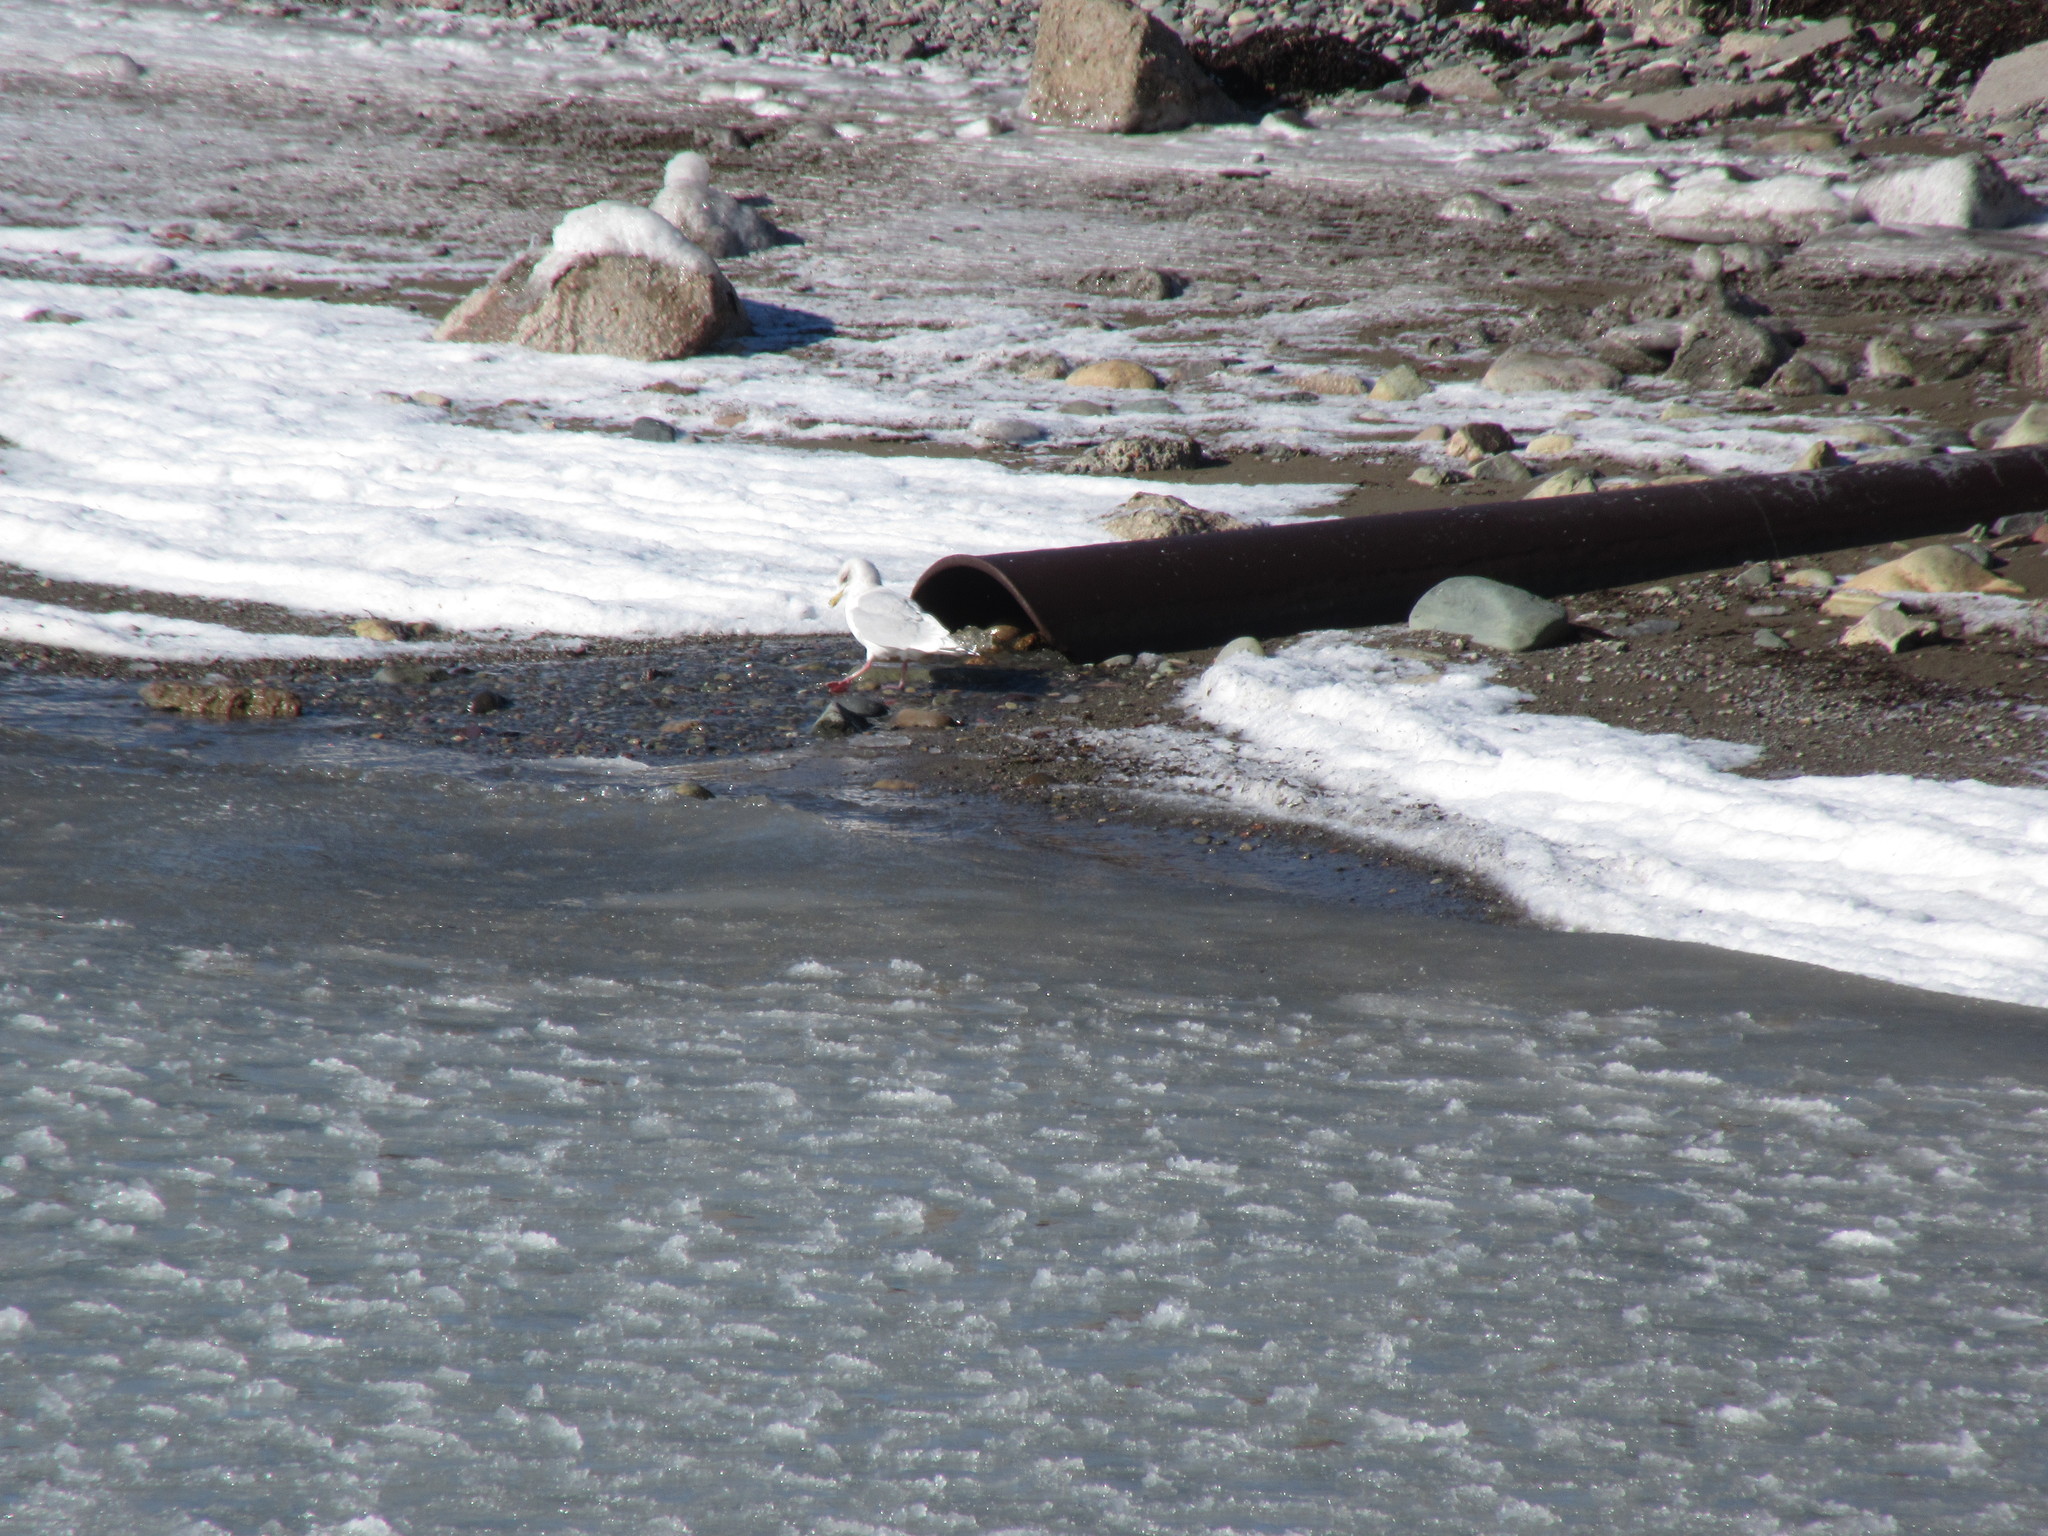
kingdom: Animalia
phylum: Chordata
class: Aves
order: Charadriiformes
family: Laridae
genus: Larus
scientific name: Larus glaucoides
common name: Iceland gull
